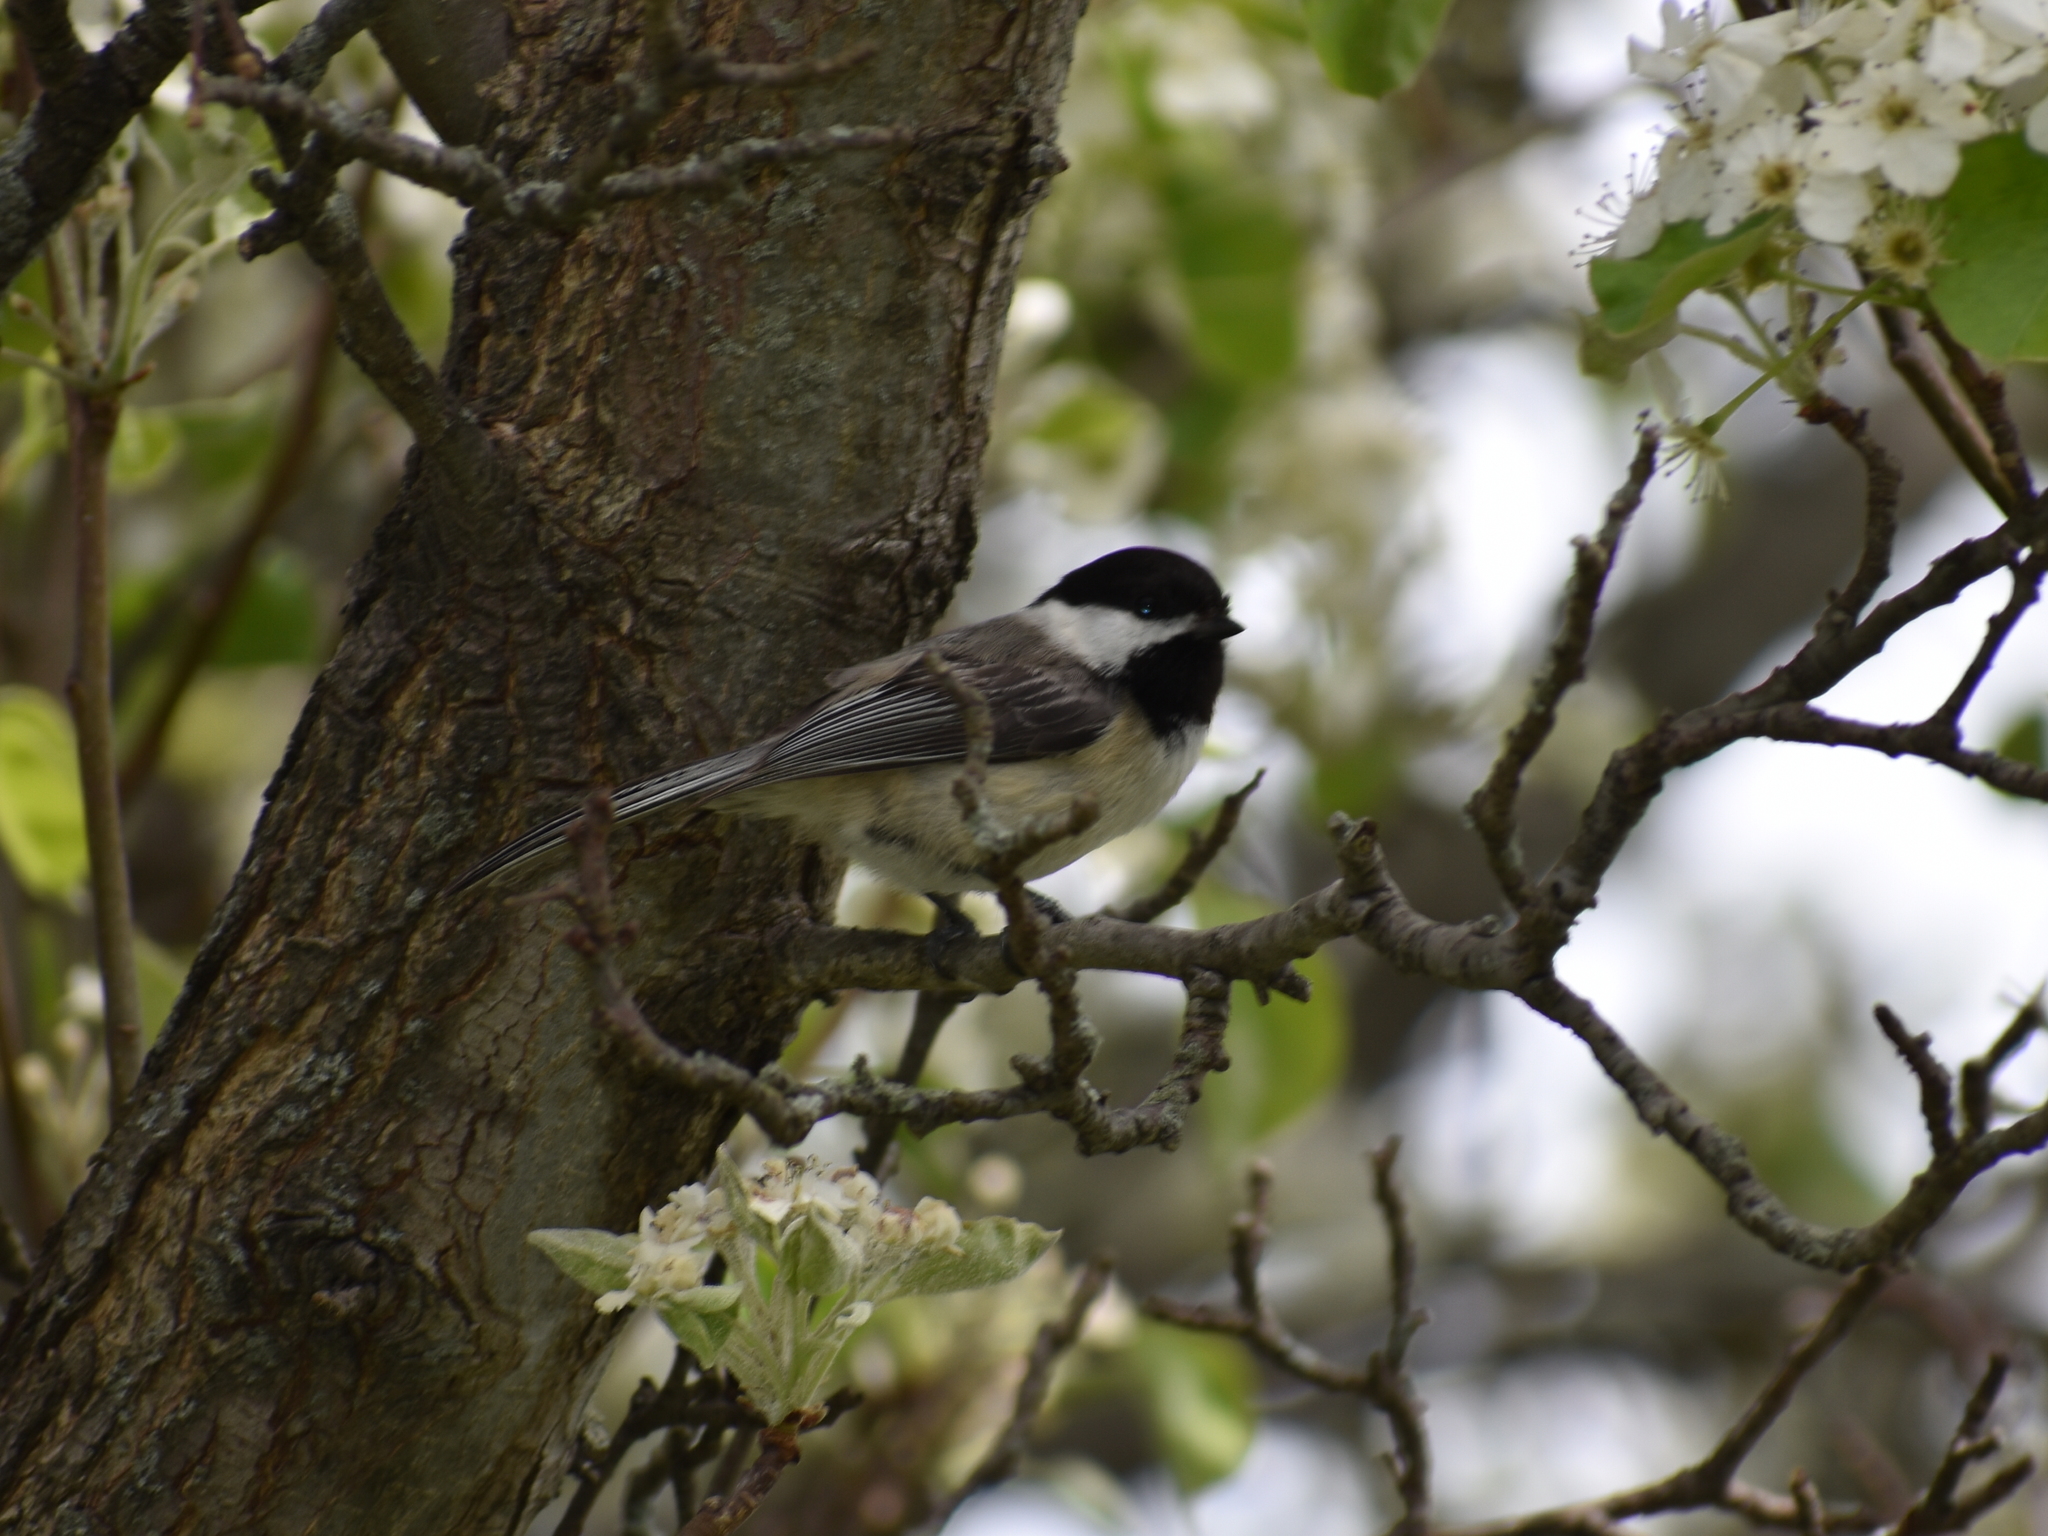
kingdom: Animalia
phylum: Chordata
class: Aves
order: Passeriformes
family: Paridae
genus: Poecile
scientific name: Poecile atricapillus
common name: Black-capped chickadee
